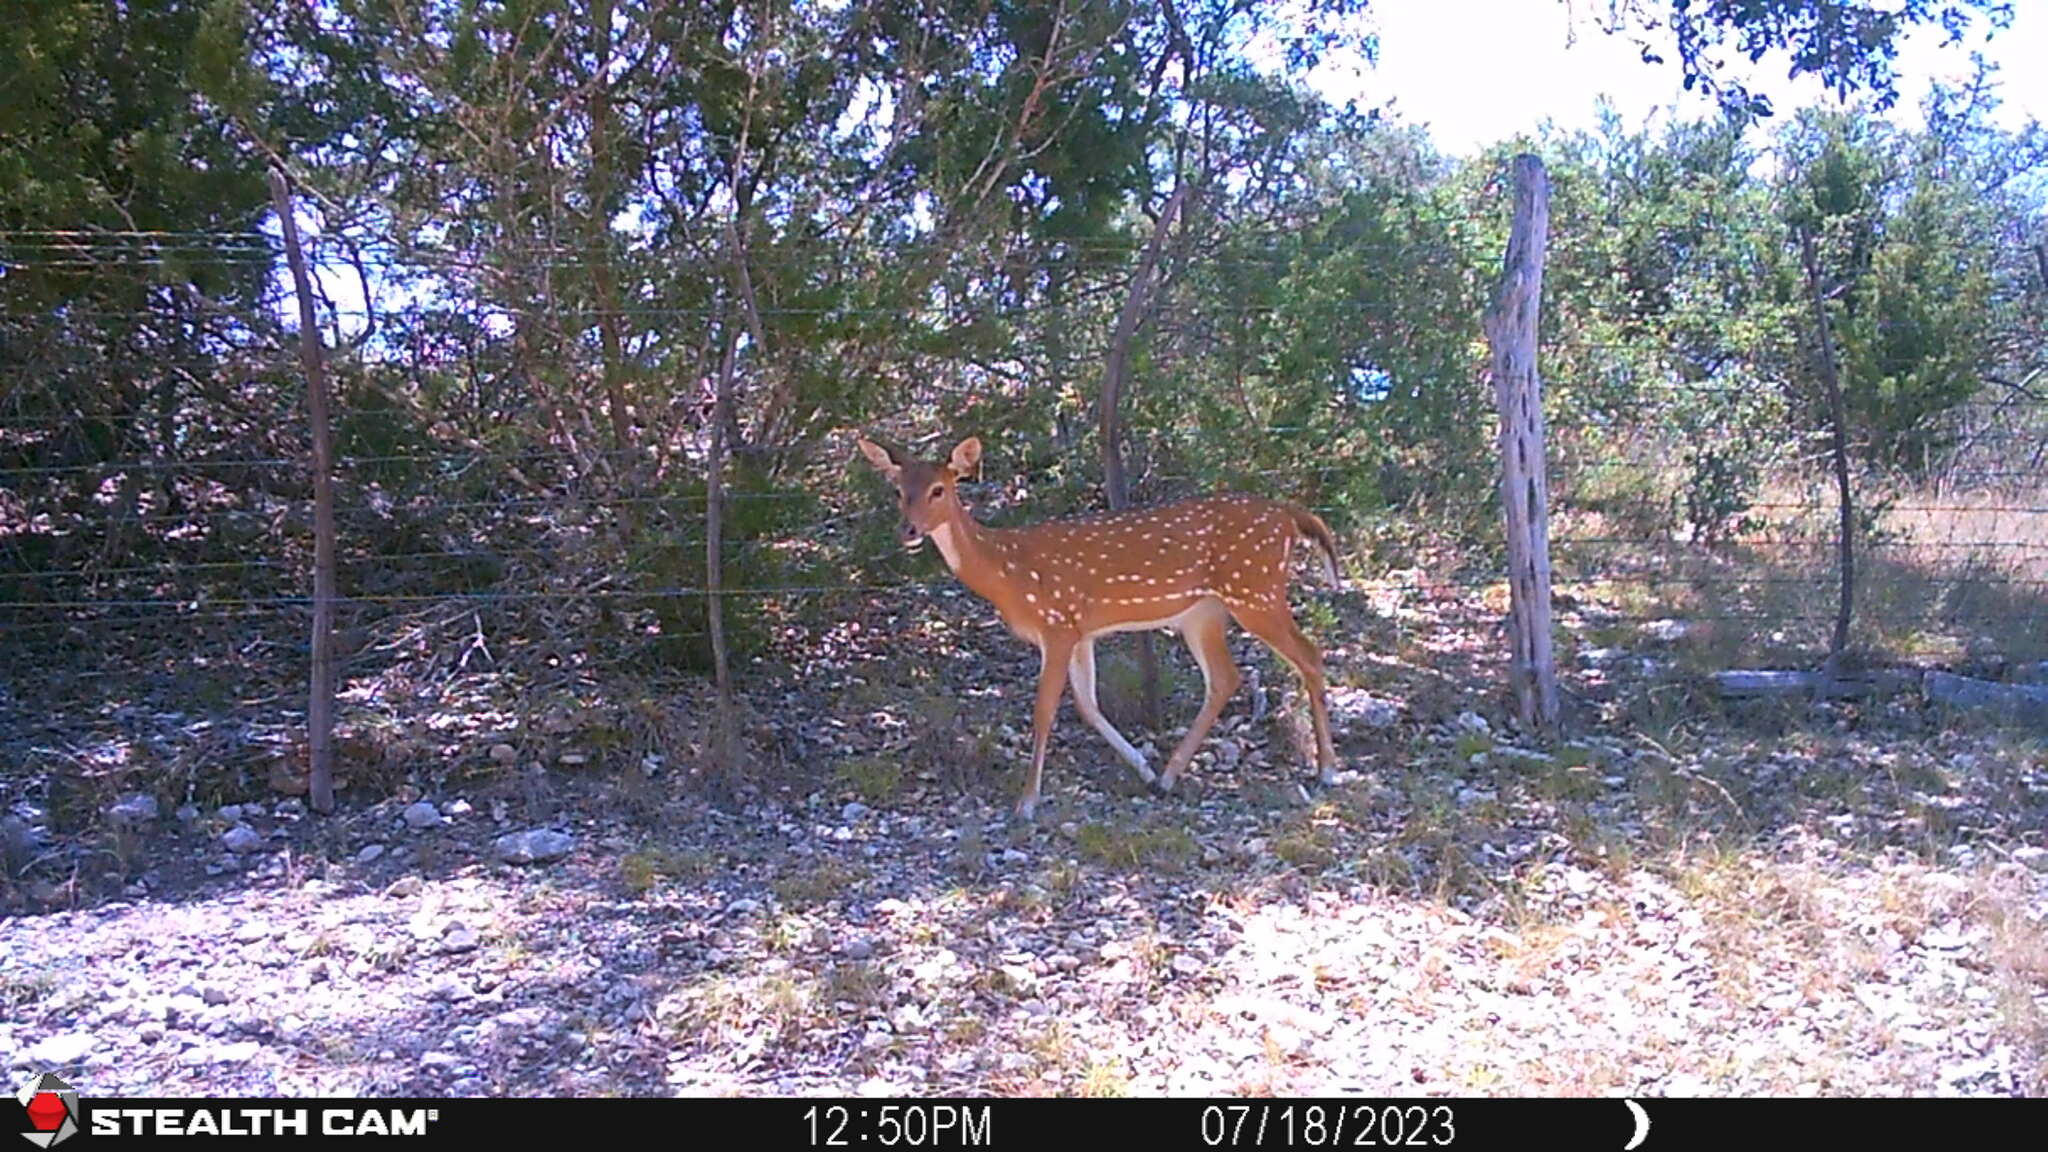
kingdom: Animalia
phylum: Chordata
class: Mammalia
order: Artiodactyla
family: Cervidae
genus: Axis
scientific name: Axis axis
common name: Chital
